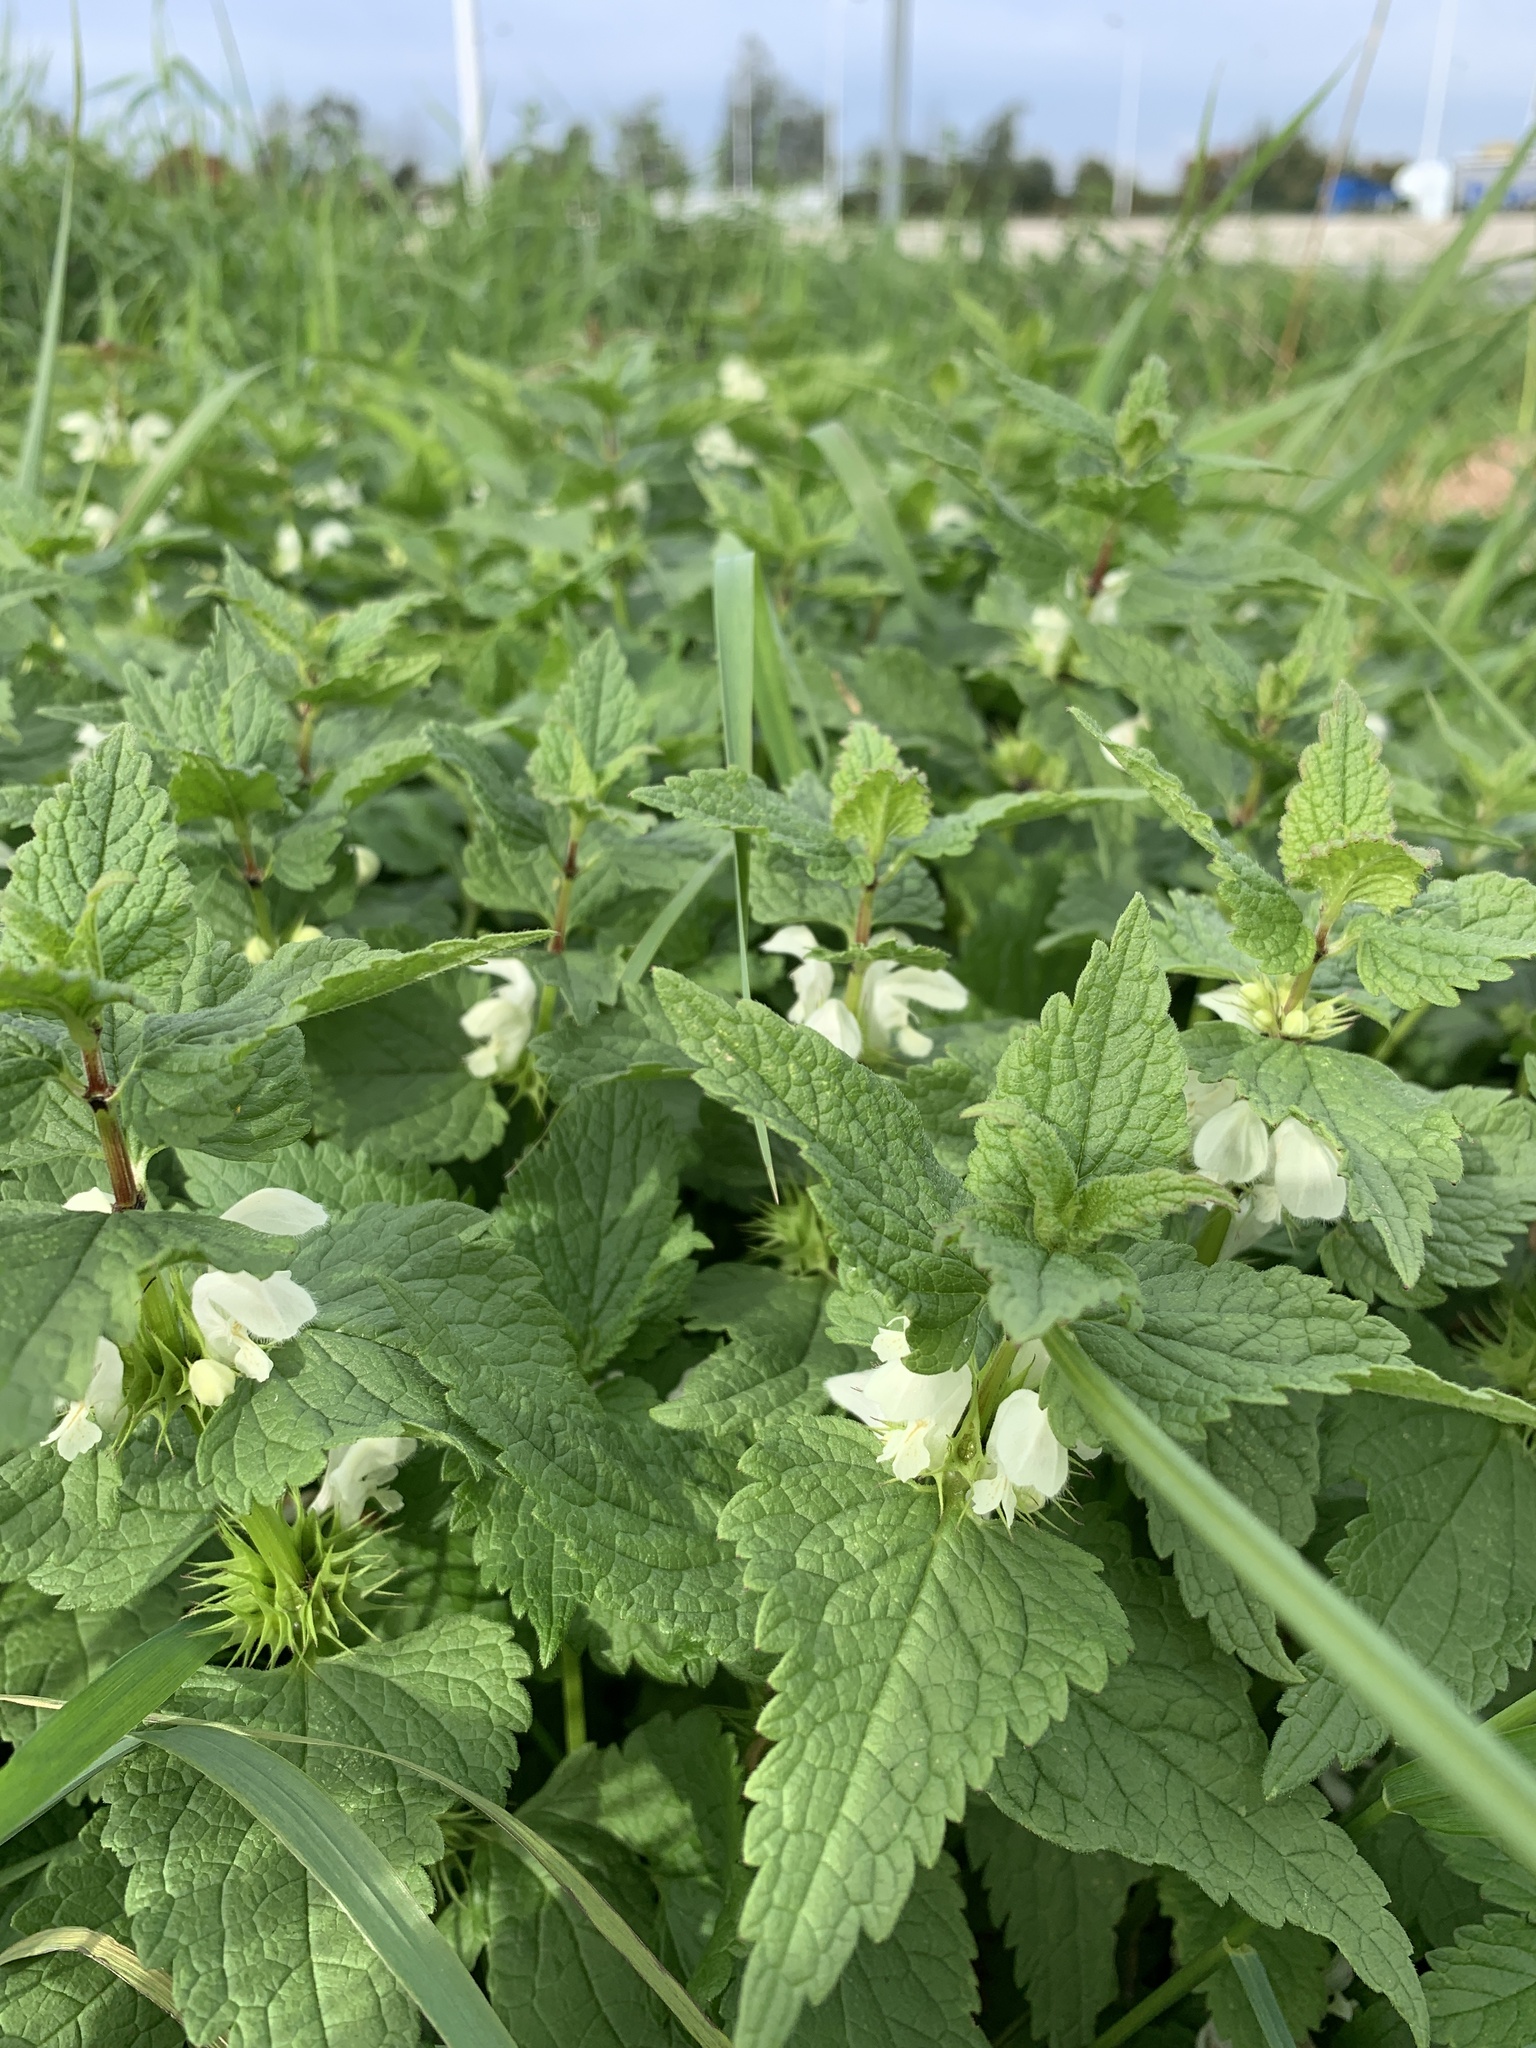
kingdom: Plantae
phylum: Tracheophyta
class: Magnoliopsida
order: Lamiales
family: Lamiaceae
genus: Lamium
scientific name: Lamium album
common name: White dead-nettle
